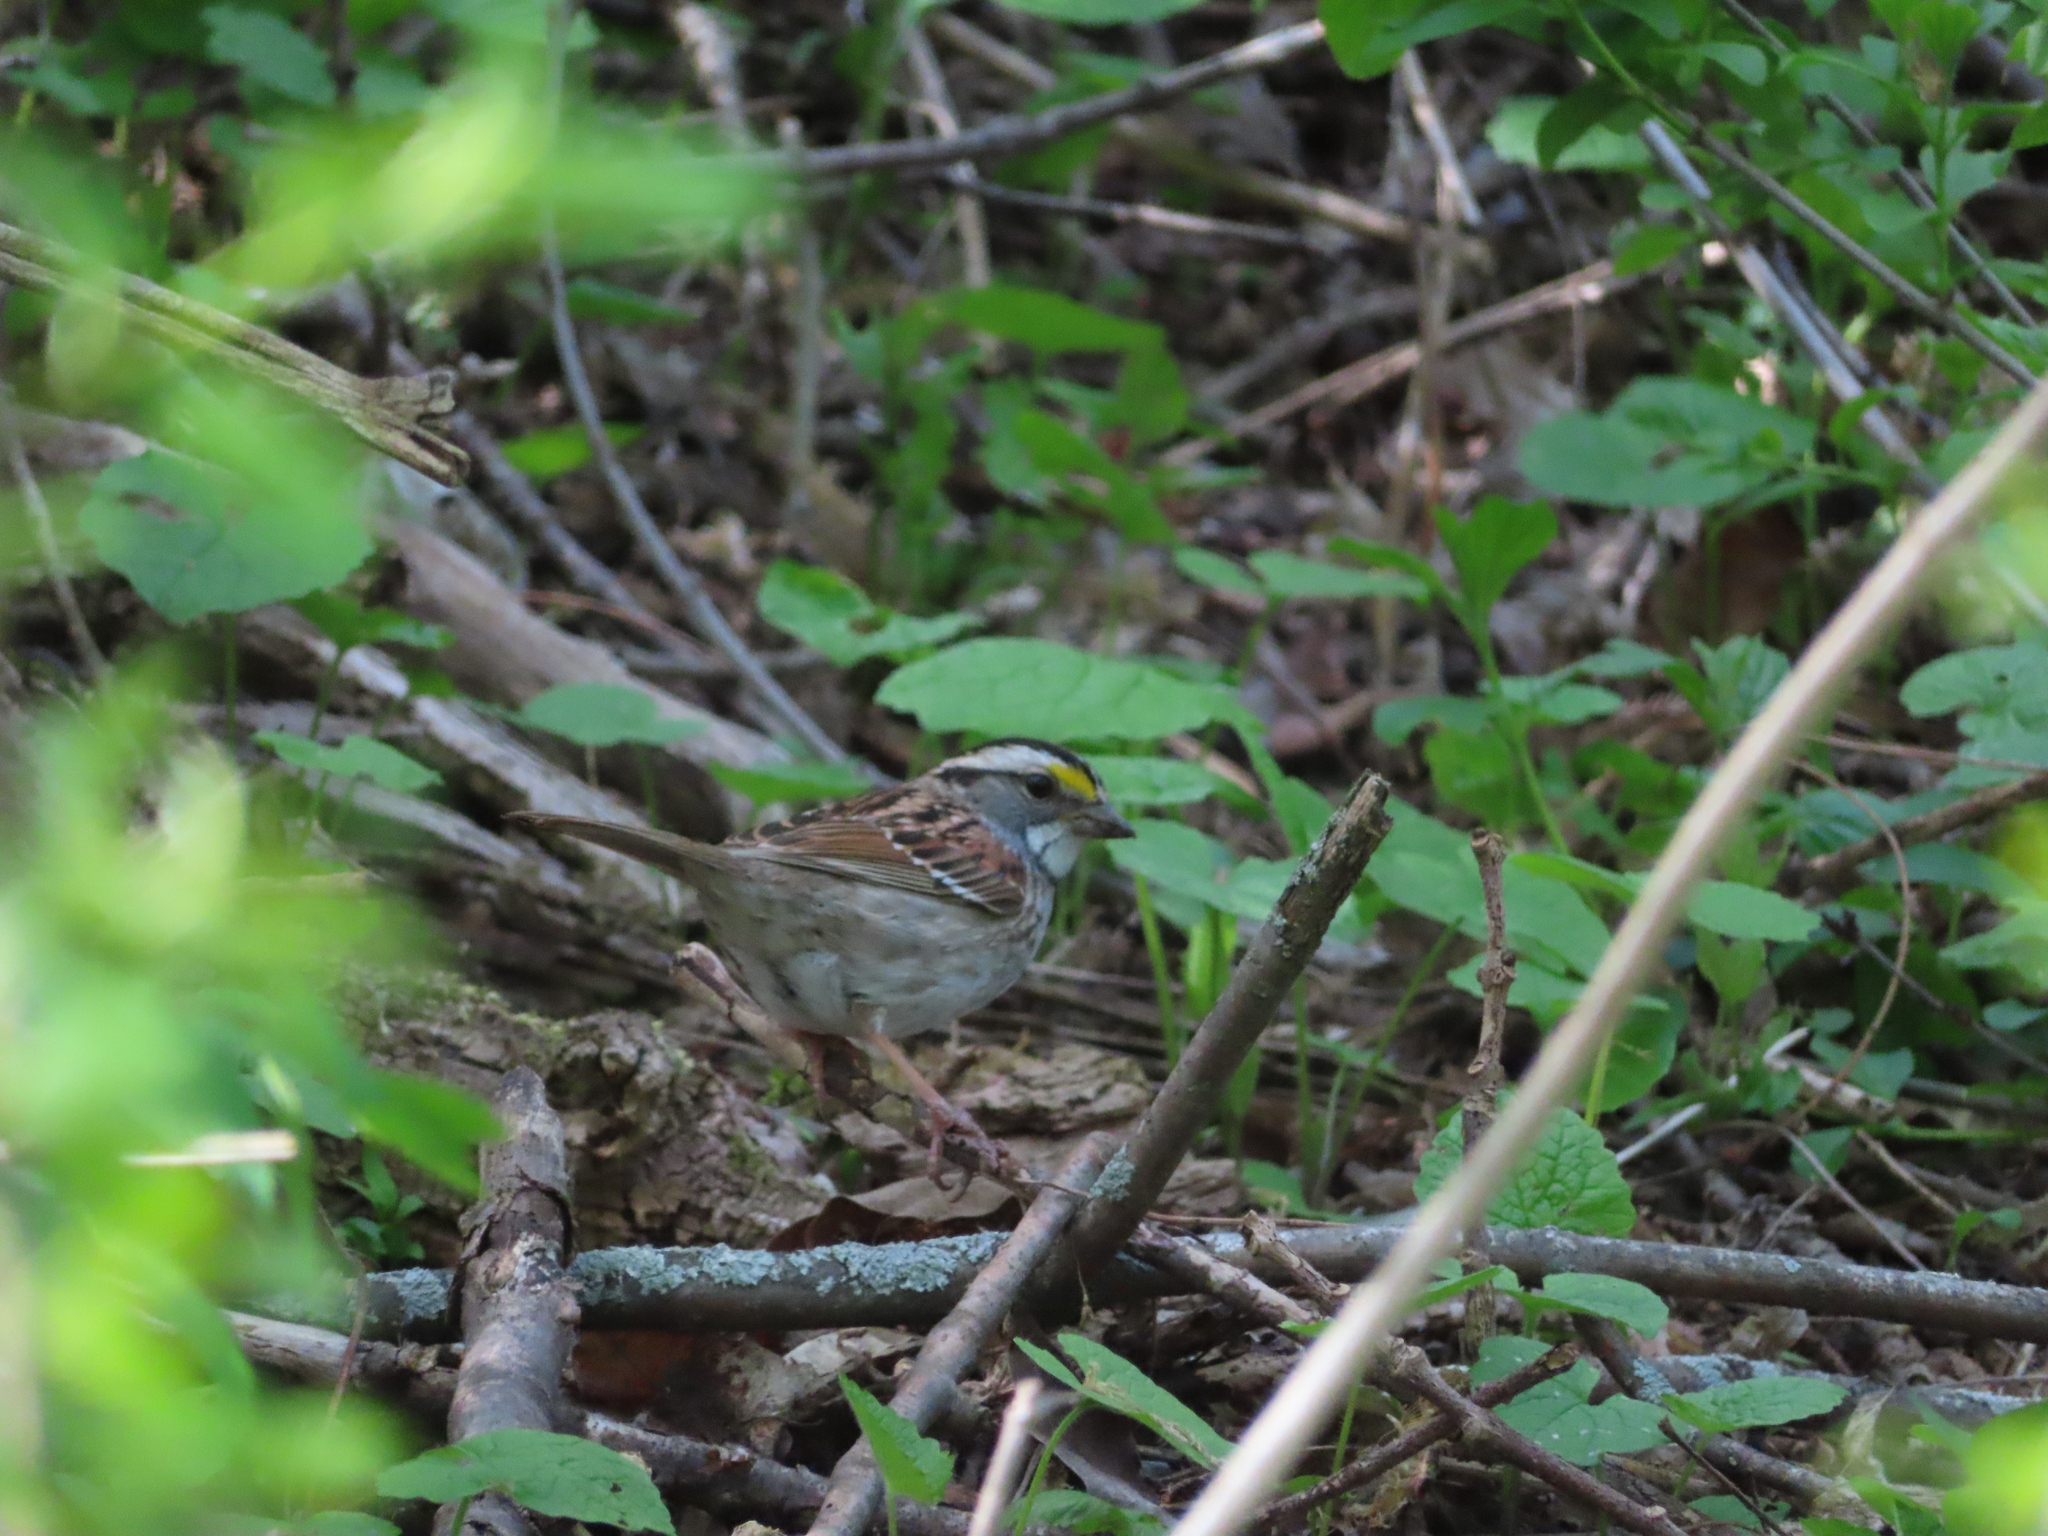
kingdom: Animalia
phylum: Chordata
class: Aves
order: Passeriformes
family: Passerellidae
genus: Zonotrichia
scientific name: Zonotrichia albicollis
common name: White-throated sparrow
